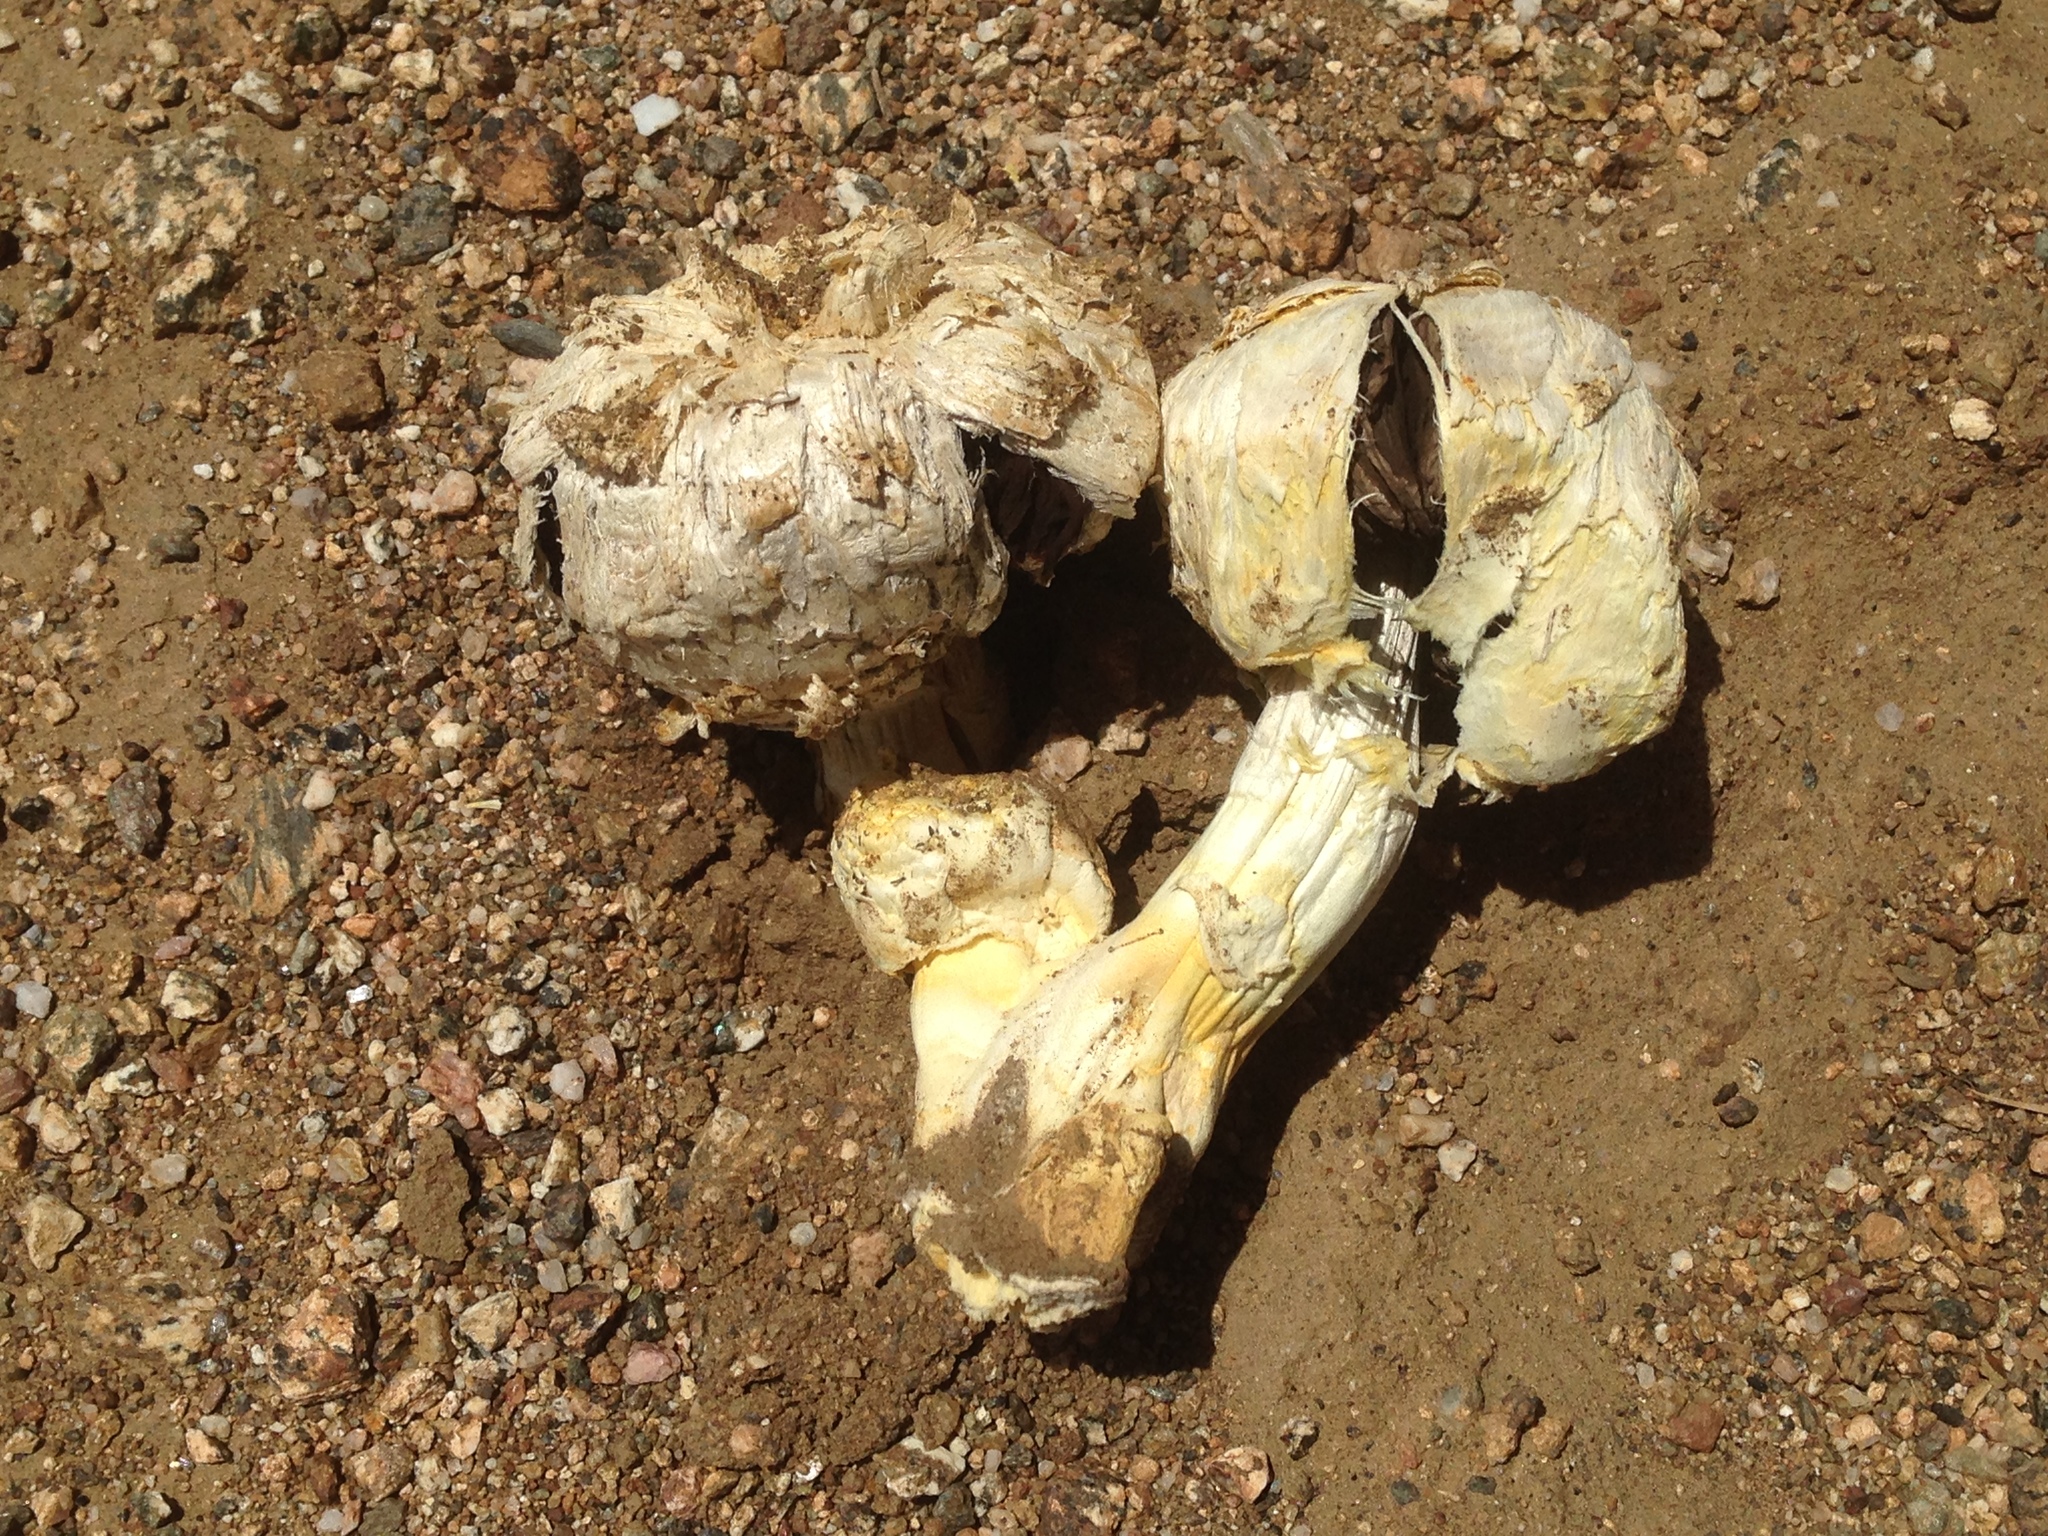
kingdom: Fungi
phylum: Basidiomycota
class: Agaricomycetes
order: Agaricales
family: Agaricaceae
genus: Agaricus
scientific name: Agaricus deserticola
